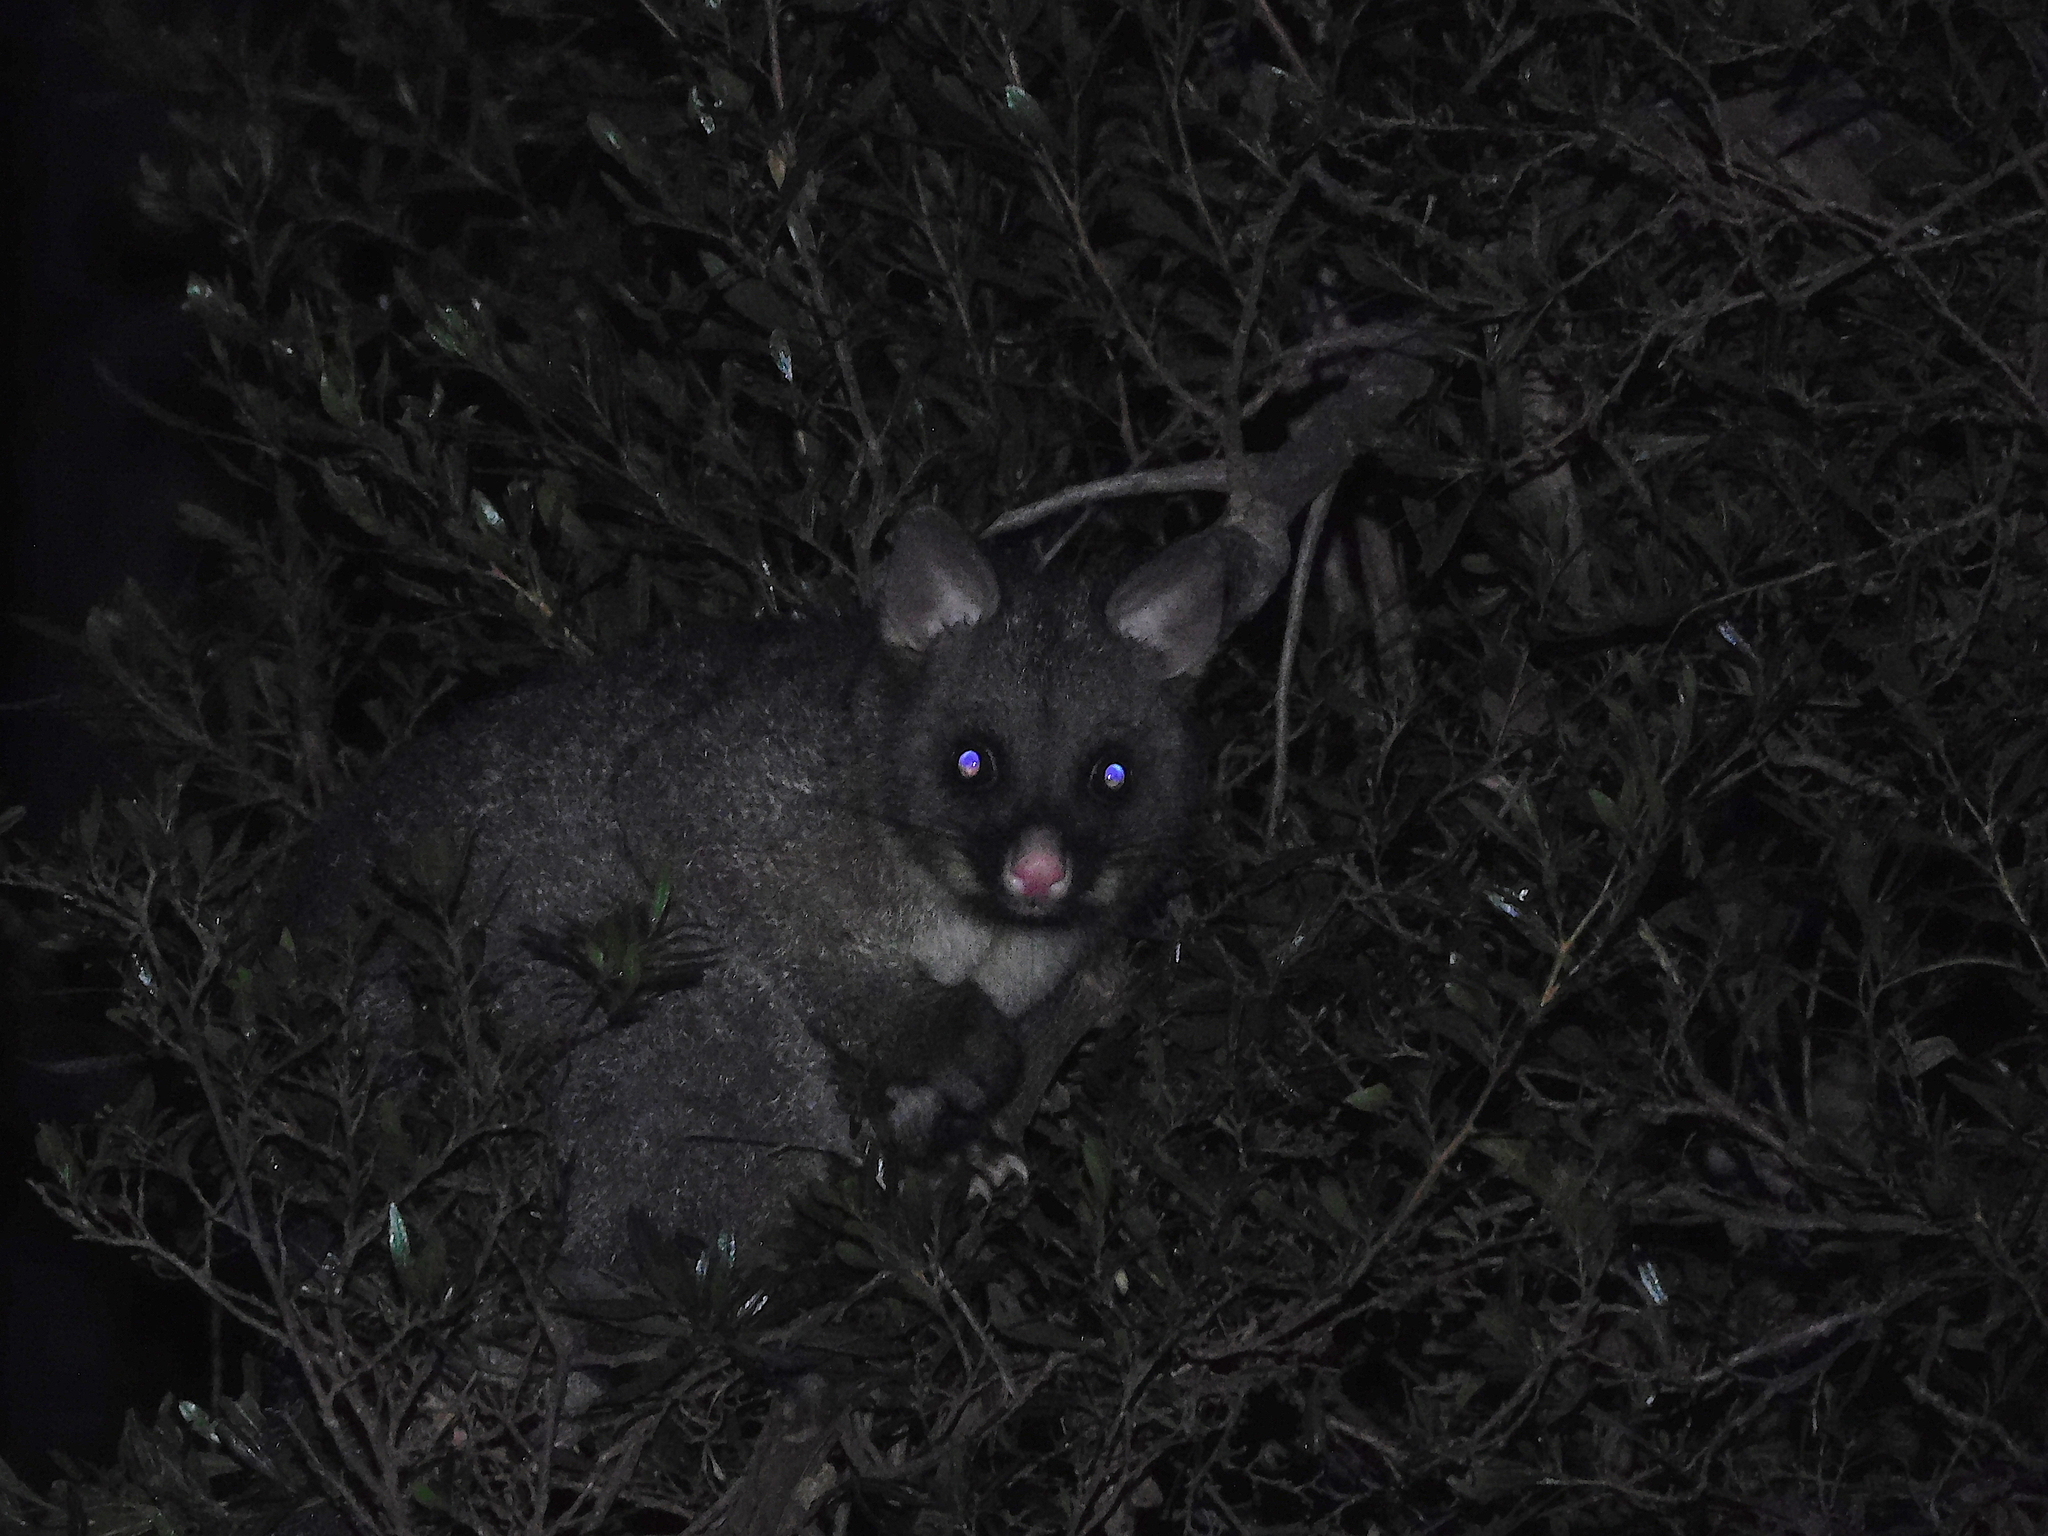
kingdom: Animalia
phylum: Chordata
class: Mammalia
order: Diprotodontia
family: Phalangeridae
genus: Trichosurus
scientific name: Trichosurus vulpecula
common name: Common brushtail
